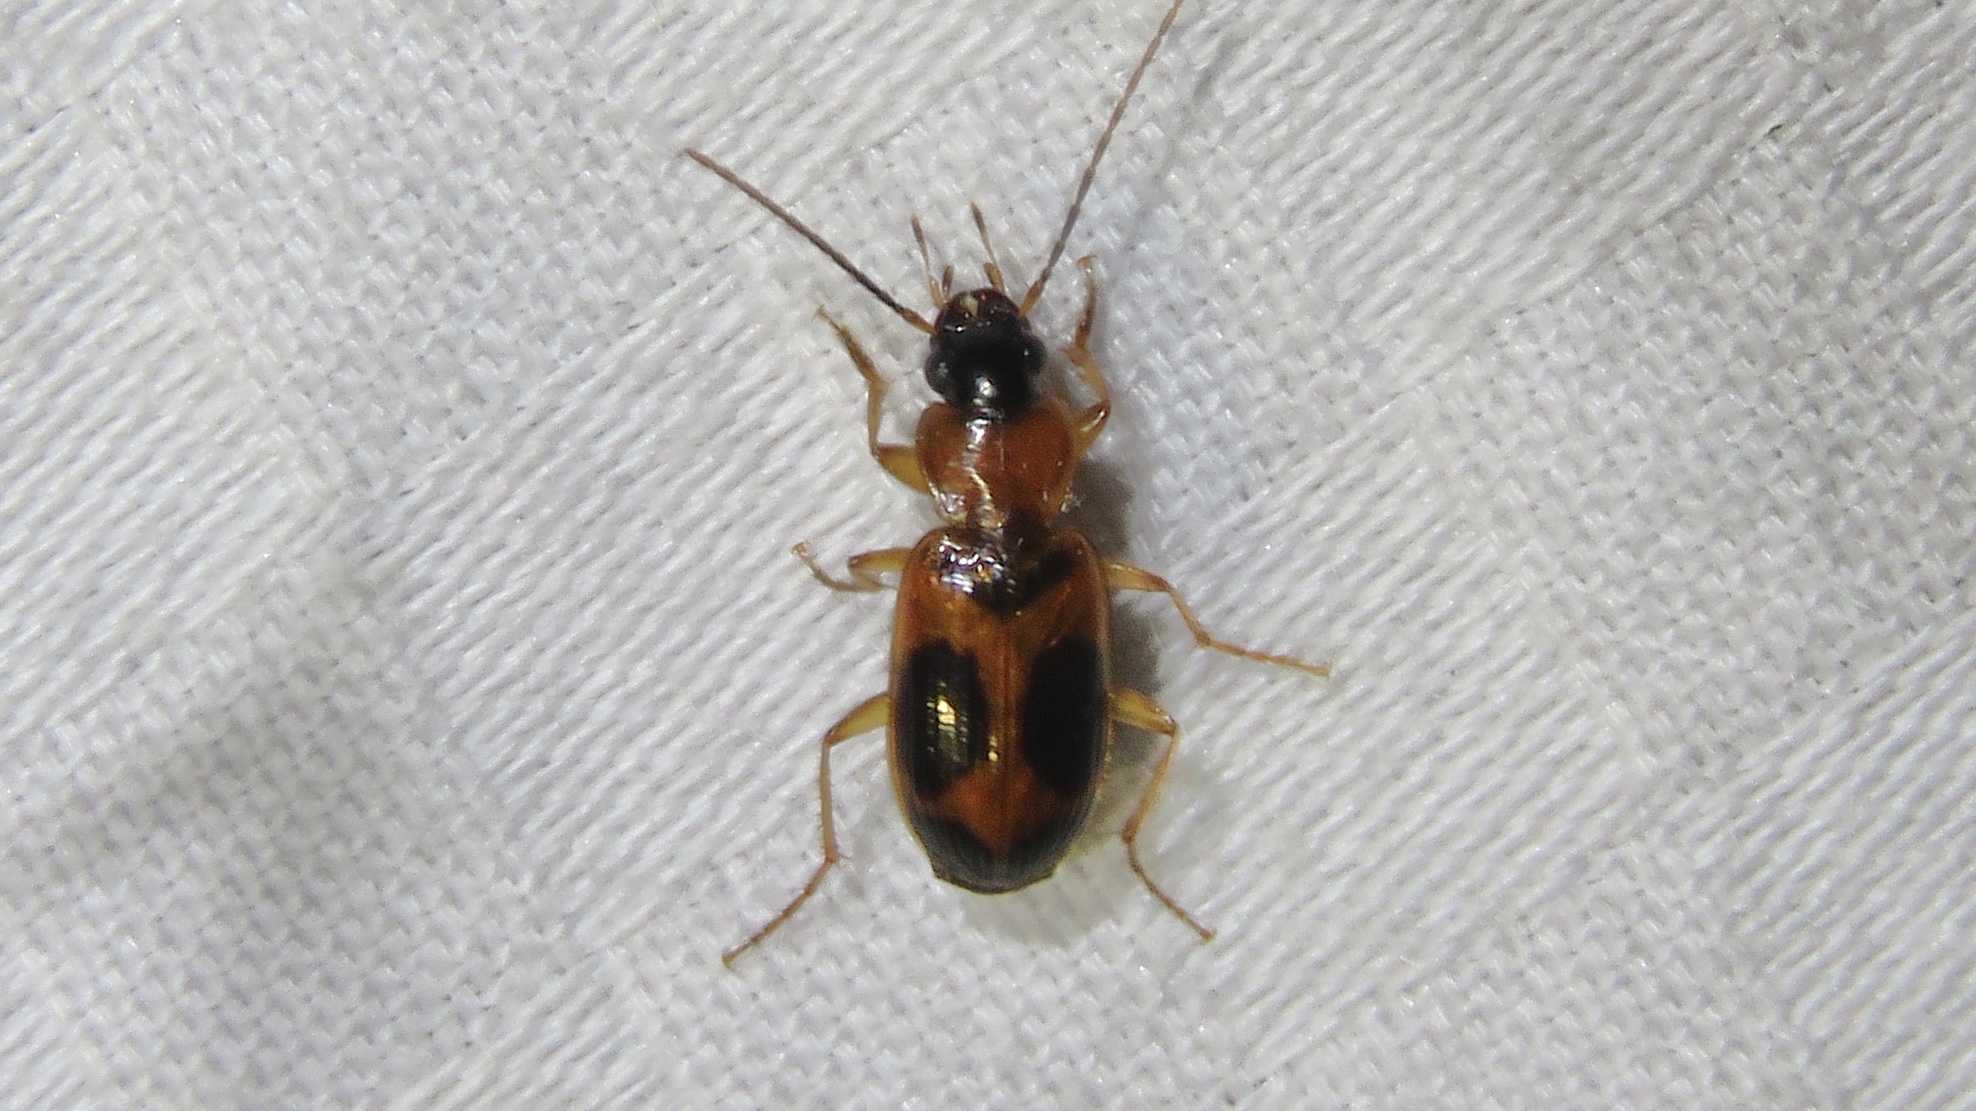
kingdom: Animalia
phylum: Arthropoda
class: Insecta
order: Coleoptera
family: Carabidae
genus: Badister
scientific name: Badister neopulchellus
